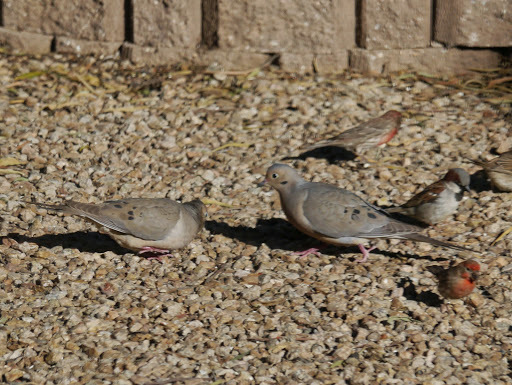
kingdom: Animalia
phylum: Chordata
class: Aves
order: Columbiformes
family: Columbidae
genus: Zenaida
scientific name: Zenaida macroura
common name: Mourning dove
